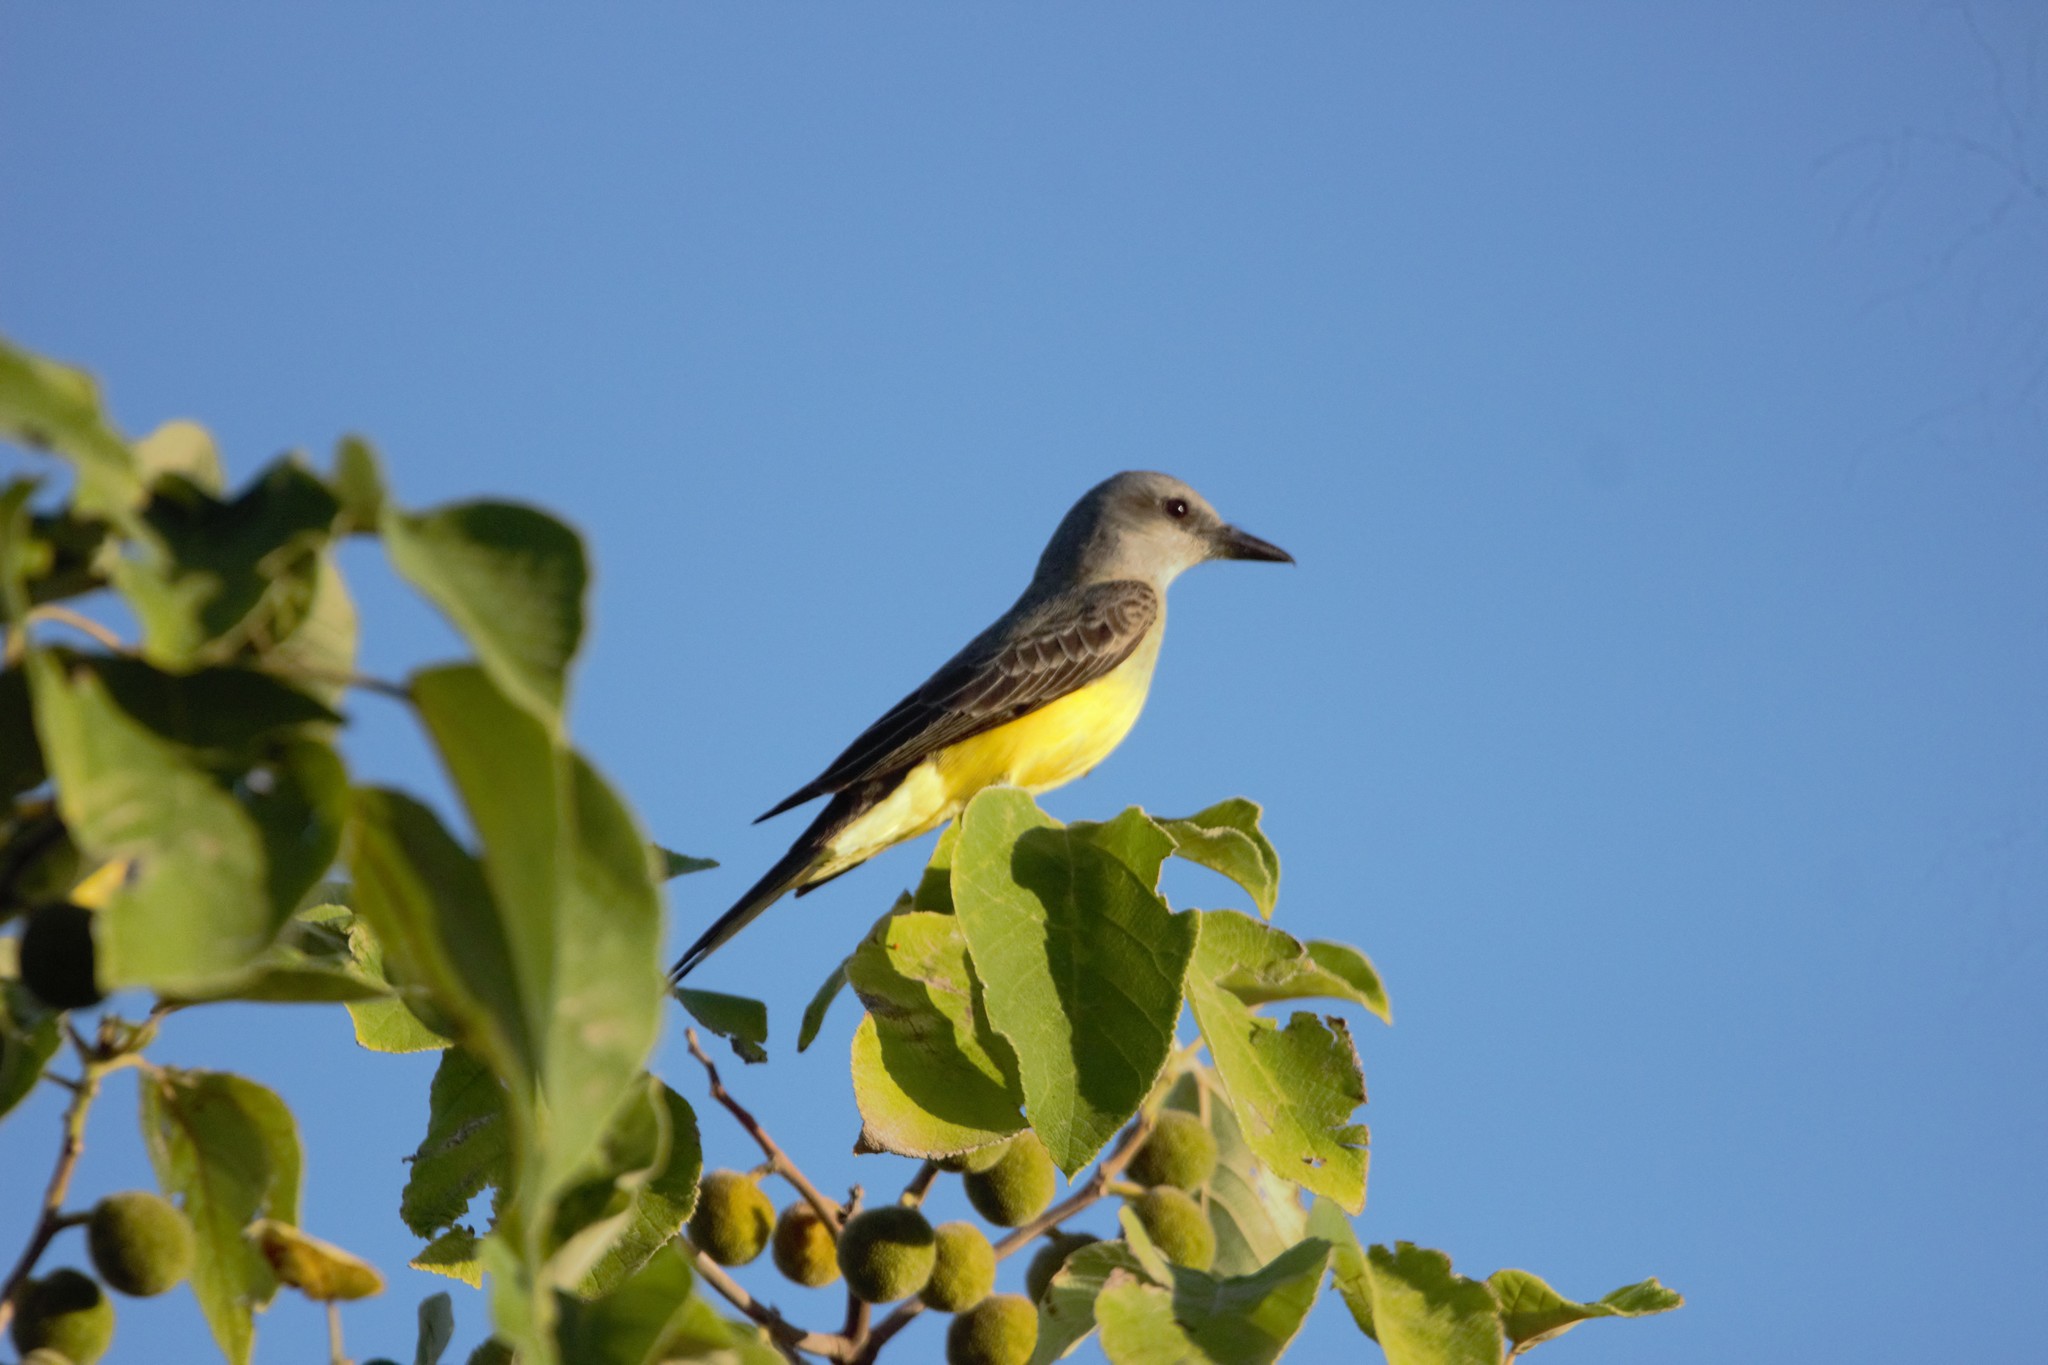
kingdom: Animalia
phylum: Chordata
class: Aves
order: Passeriformes
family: Tyrannidae
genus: Tyrannus
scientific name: Tyrannus melancholicus
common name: Tropical kingbird
